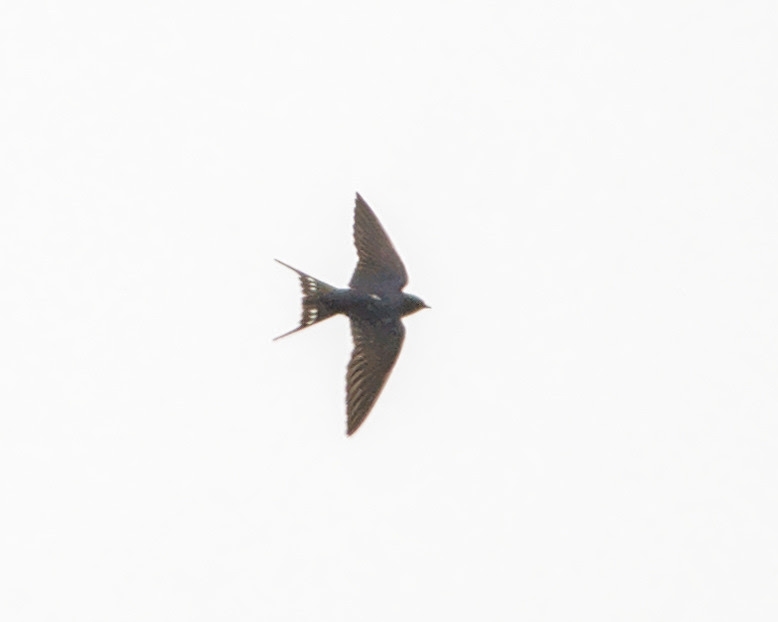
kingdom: Animalia
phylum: Chordata
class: Aves
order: Passeriformes
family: Hirundinidae
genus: Hirundo
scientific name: Hirundo rustica
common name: Barn swallow
